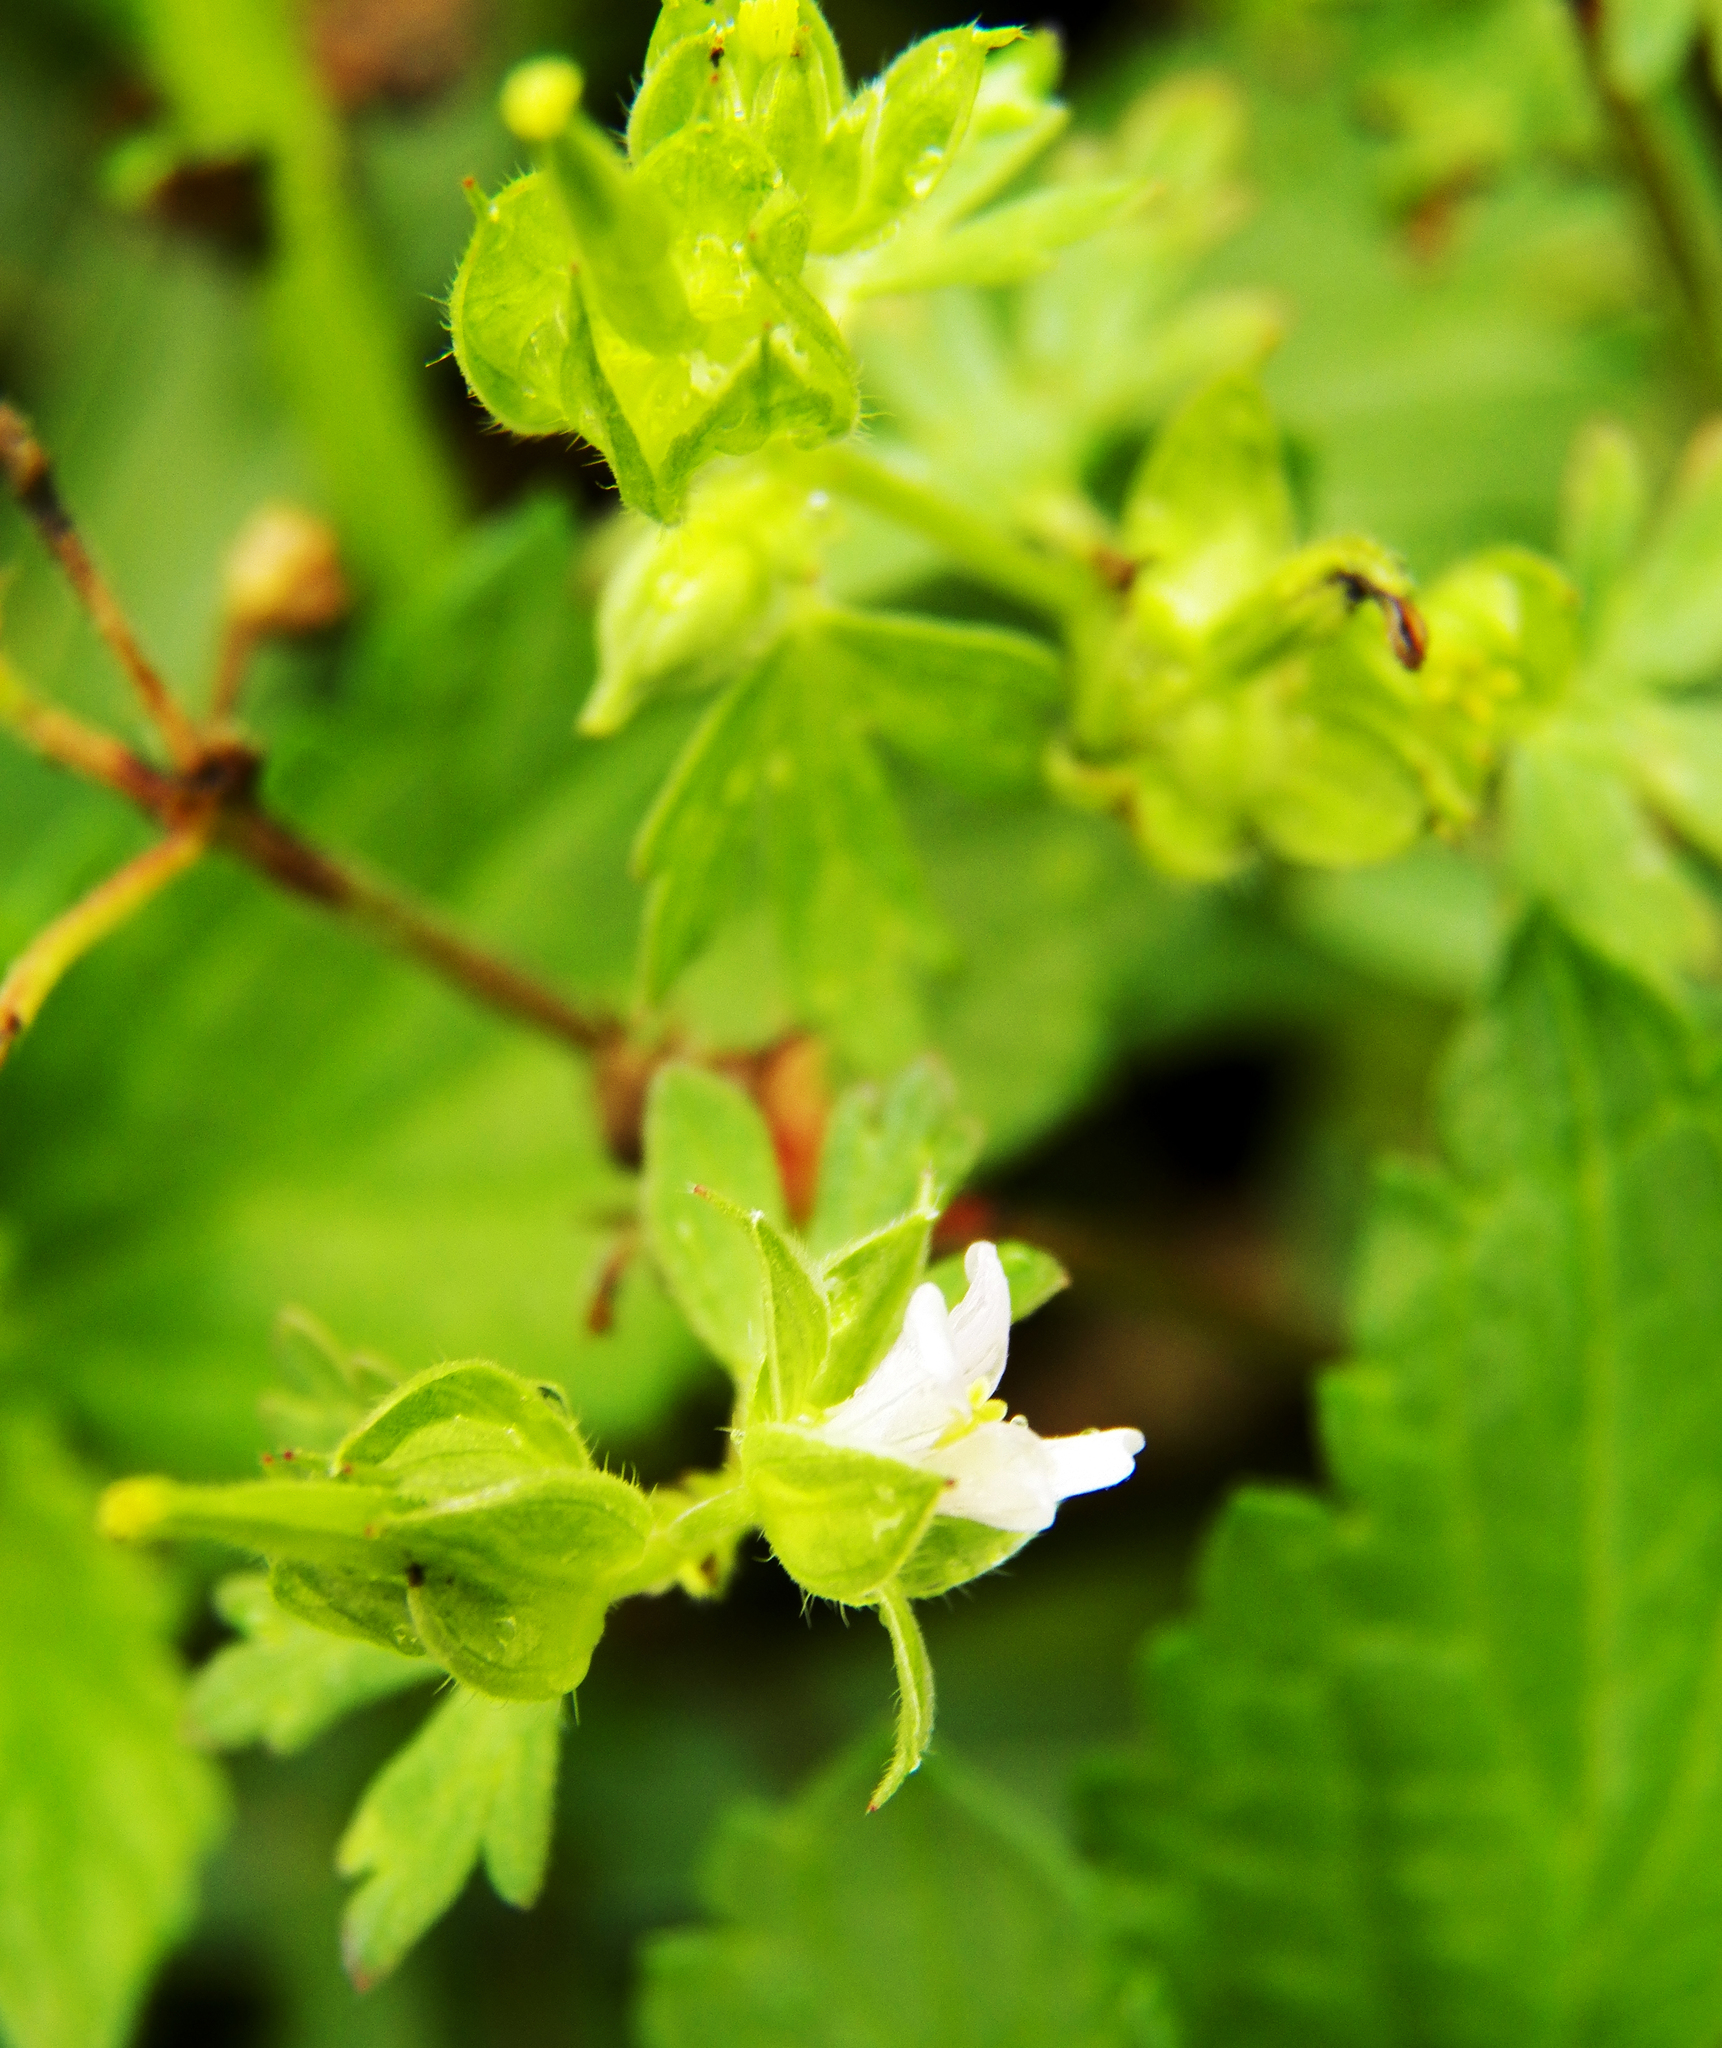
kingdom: Plantae
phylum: Tracheophyta
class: Magnoliopsida
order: Geraniales
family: Geraniaceae
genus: Geranium
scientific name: Geranium carolinianum
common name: Carolina crane's-bill
